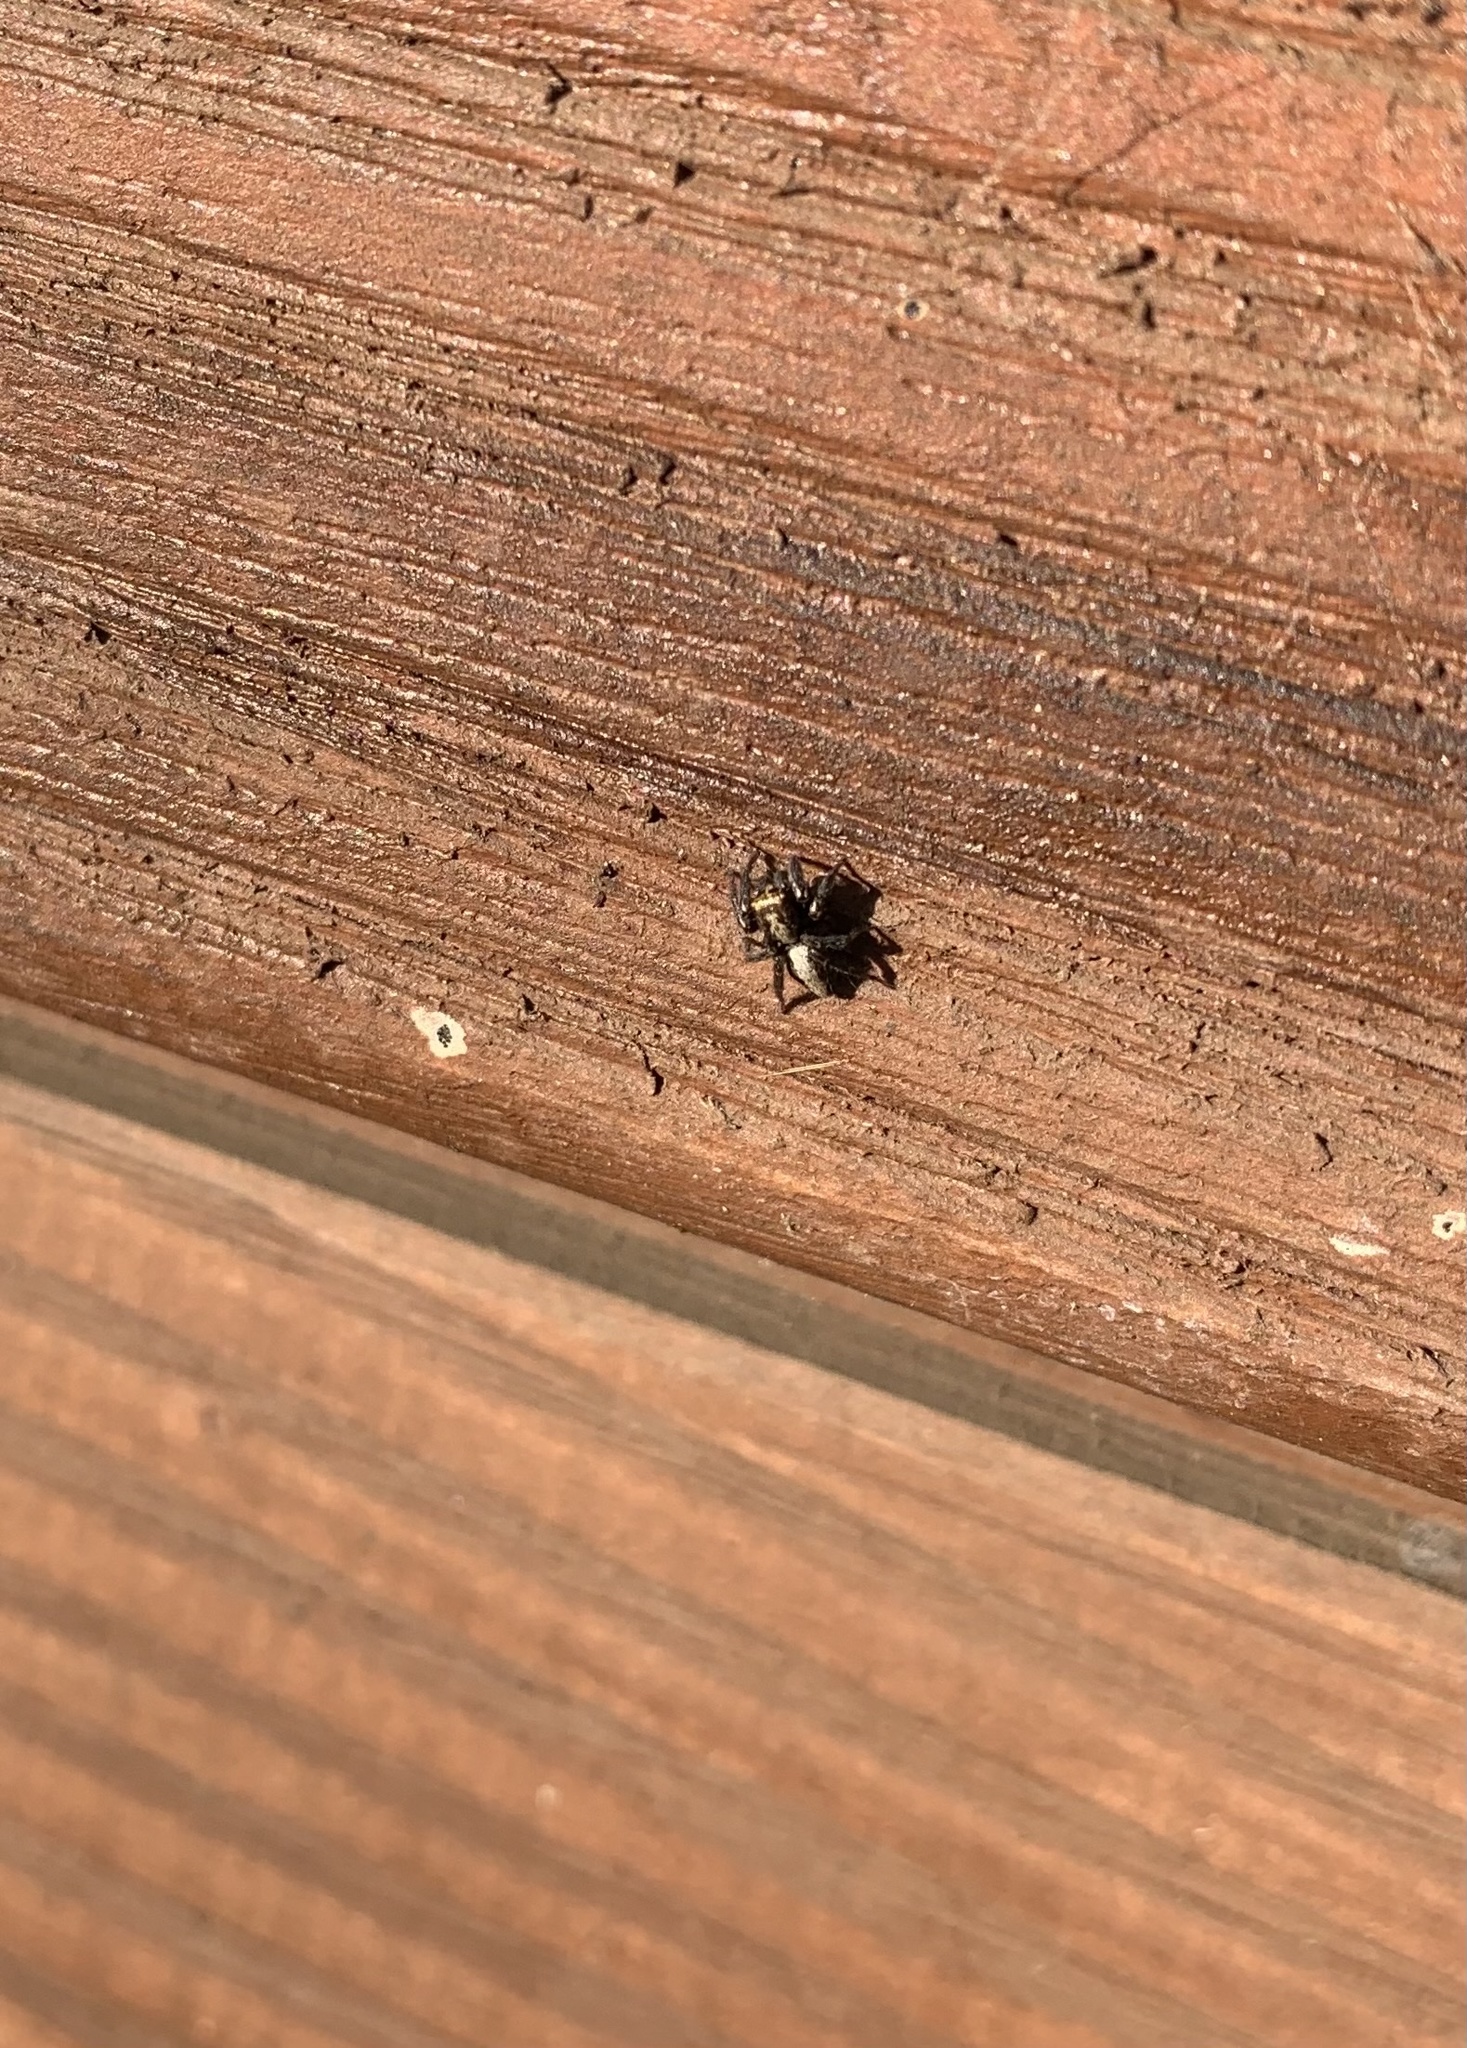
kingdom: Animalia
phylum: Arthropoda
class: Arachnida
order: Araneae
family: Salticidae
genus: Saphrys
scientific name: Saphrys rusticana
